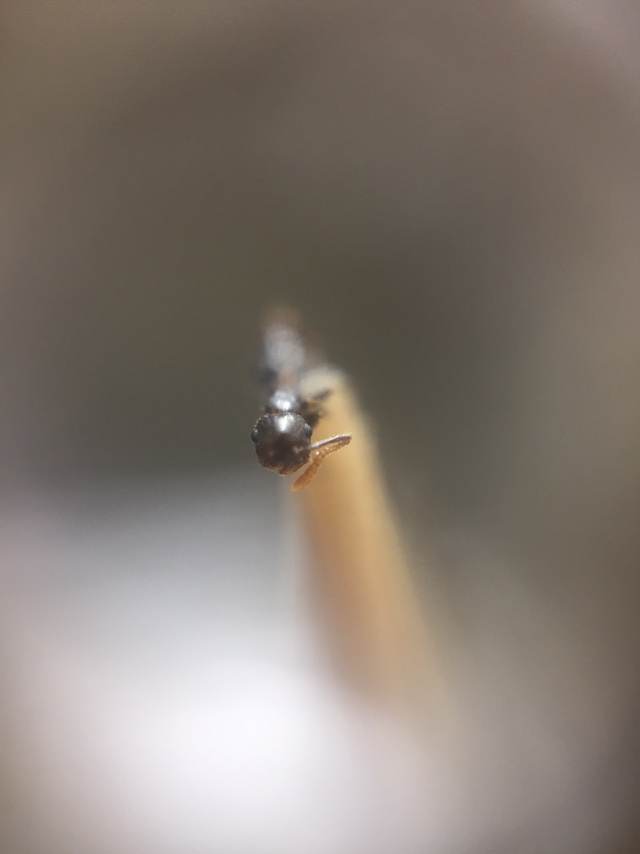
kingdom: Animalia
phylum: Arthropoda
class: Insecta
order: Hymenoptera
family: Formicidae
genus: Crematogaster
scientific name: Crematogaster rothneyi
